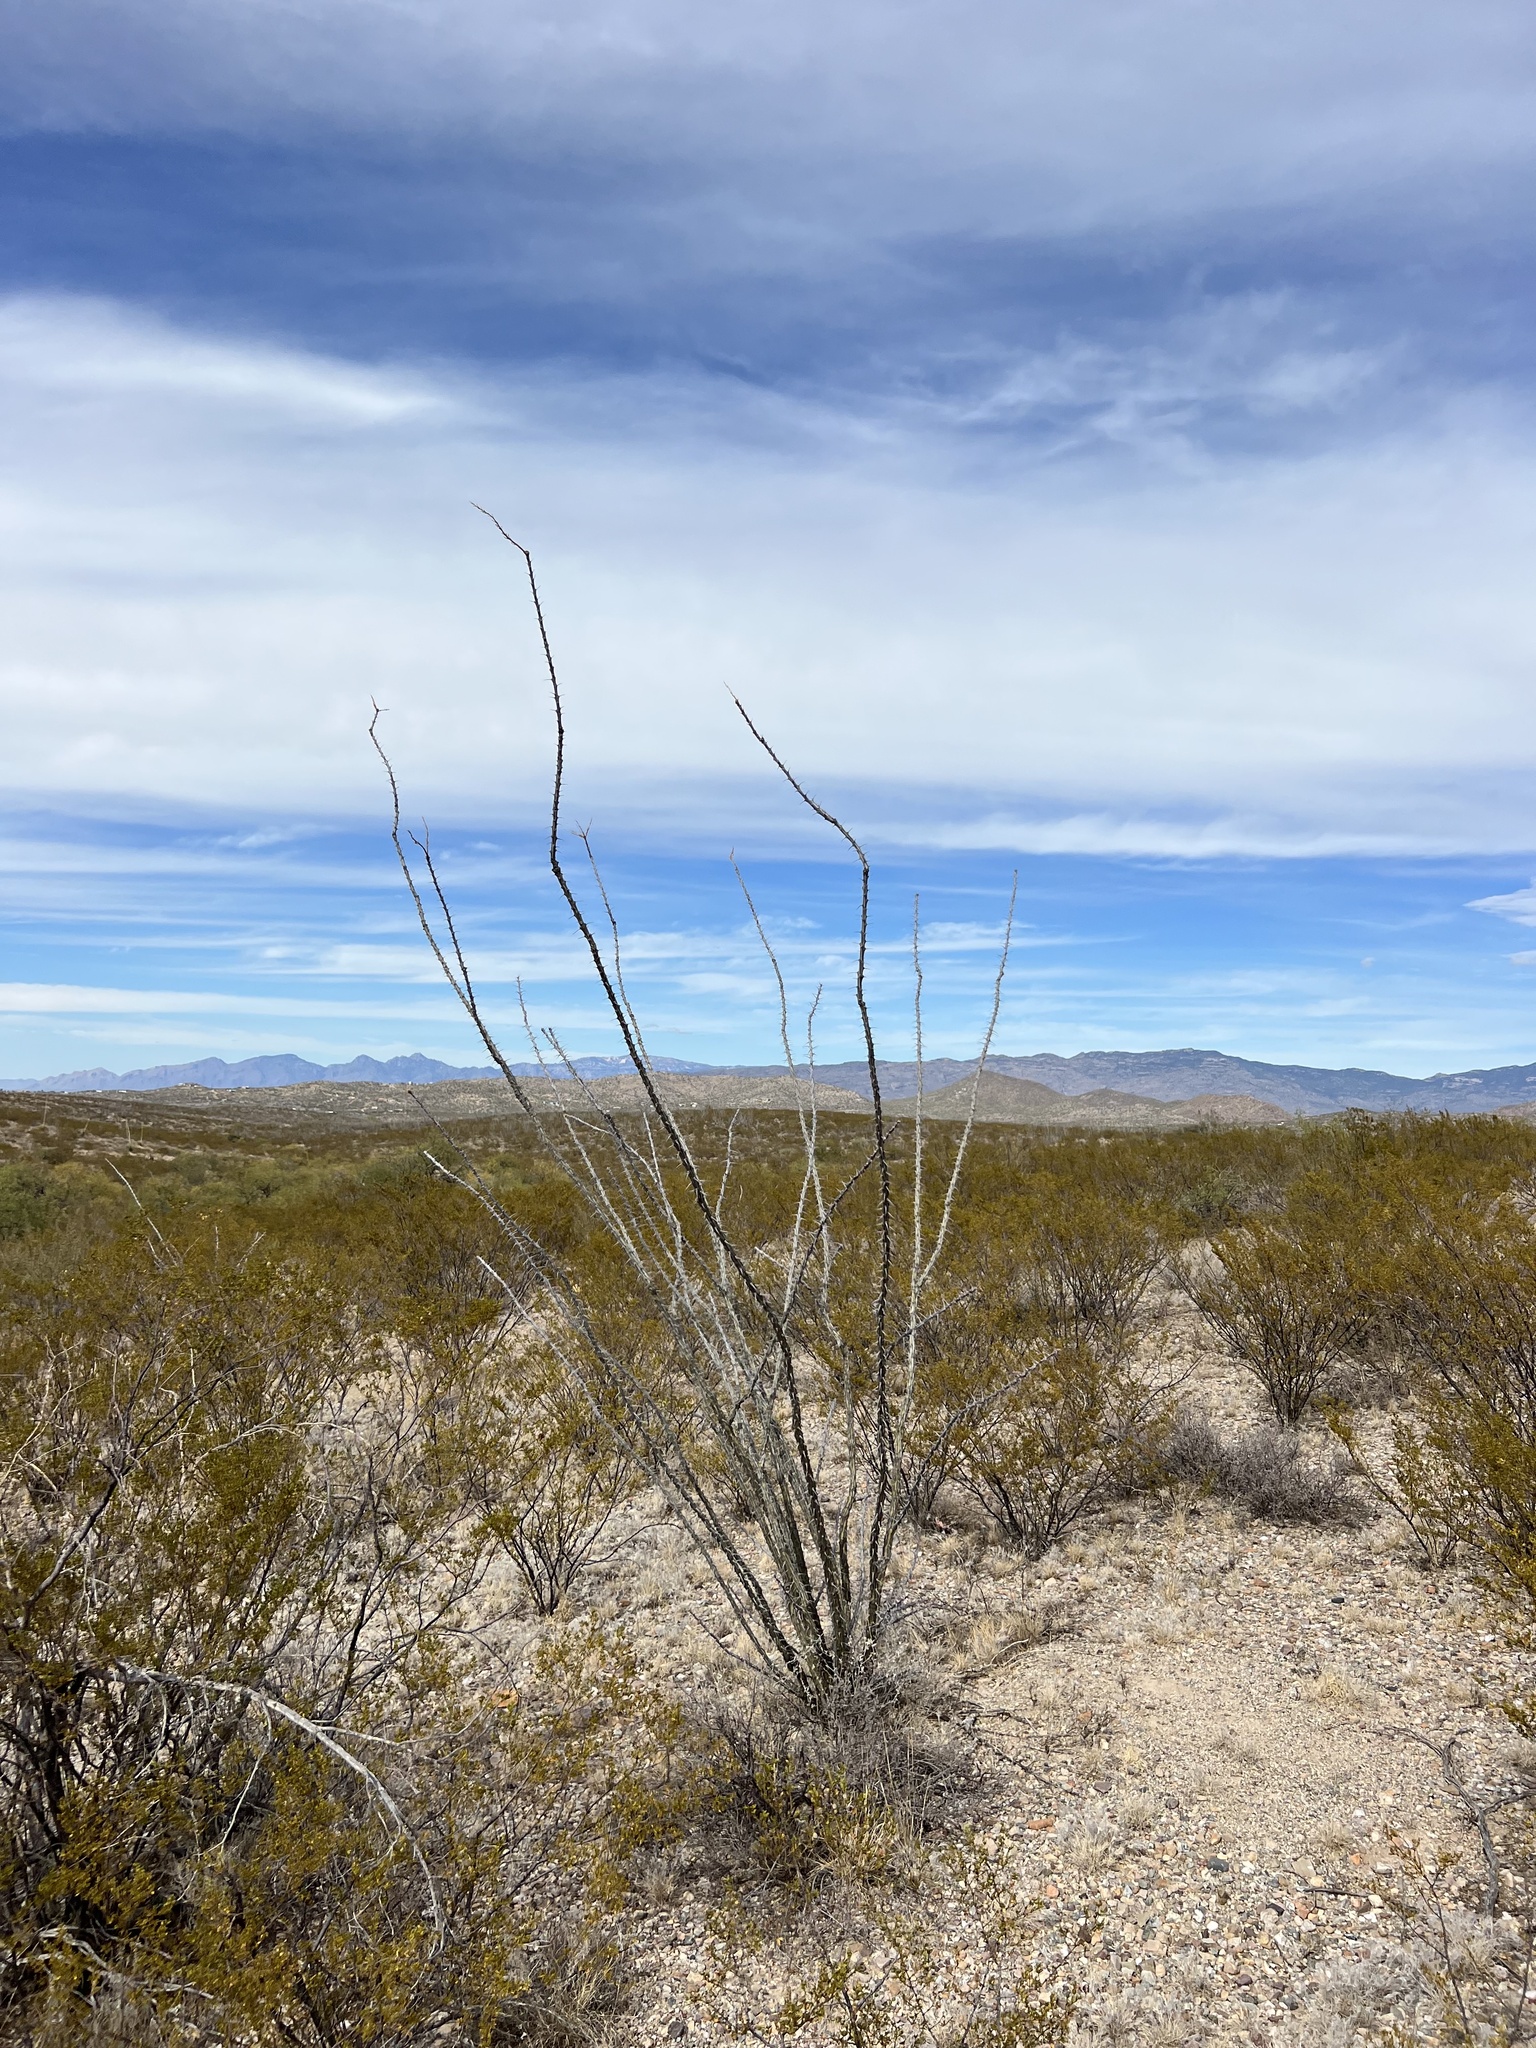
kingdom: Plantae
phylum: Tracheophyta
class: Magnoliopsida
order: Ericales
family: Fouquieriaceae
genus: Fouquieria
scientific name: Fouquieria splendens
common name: Vine-cactus
